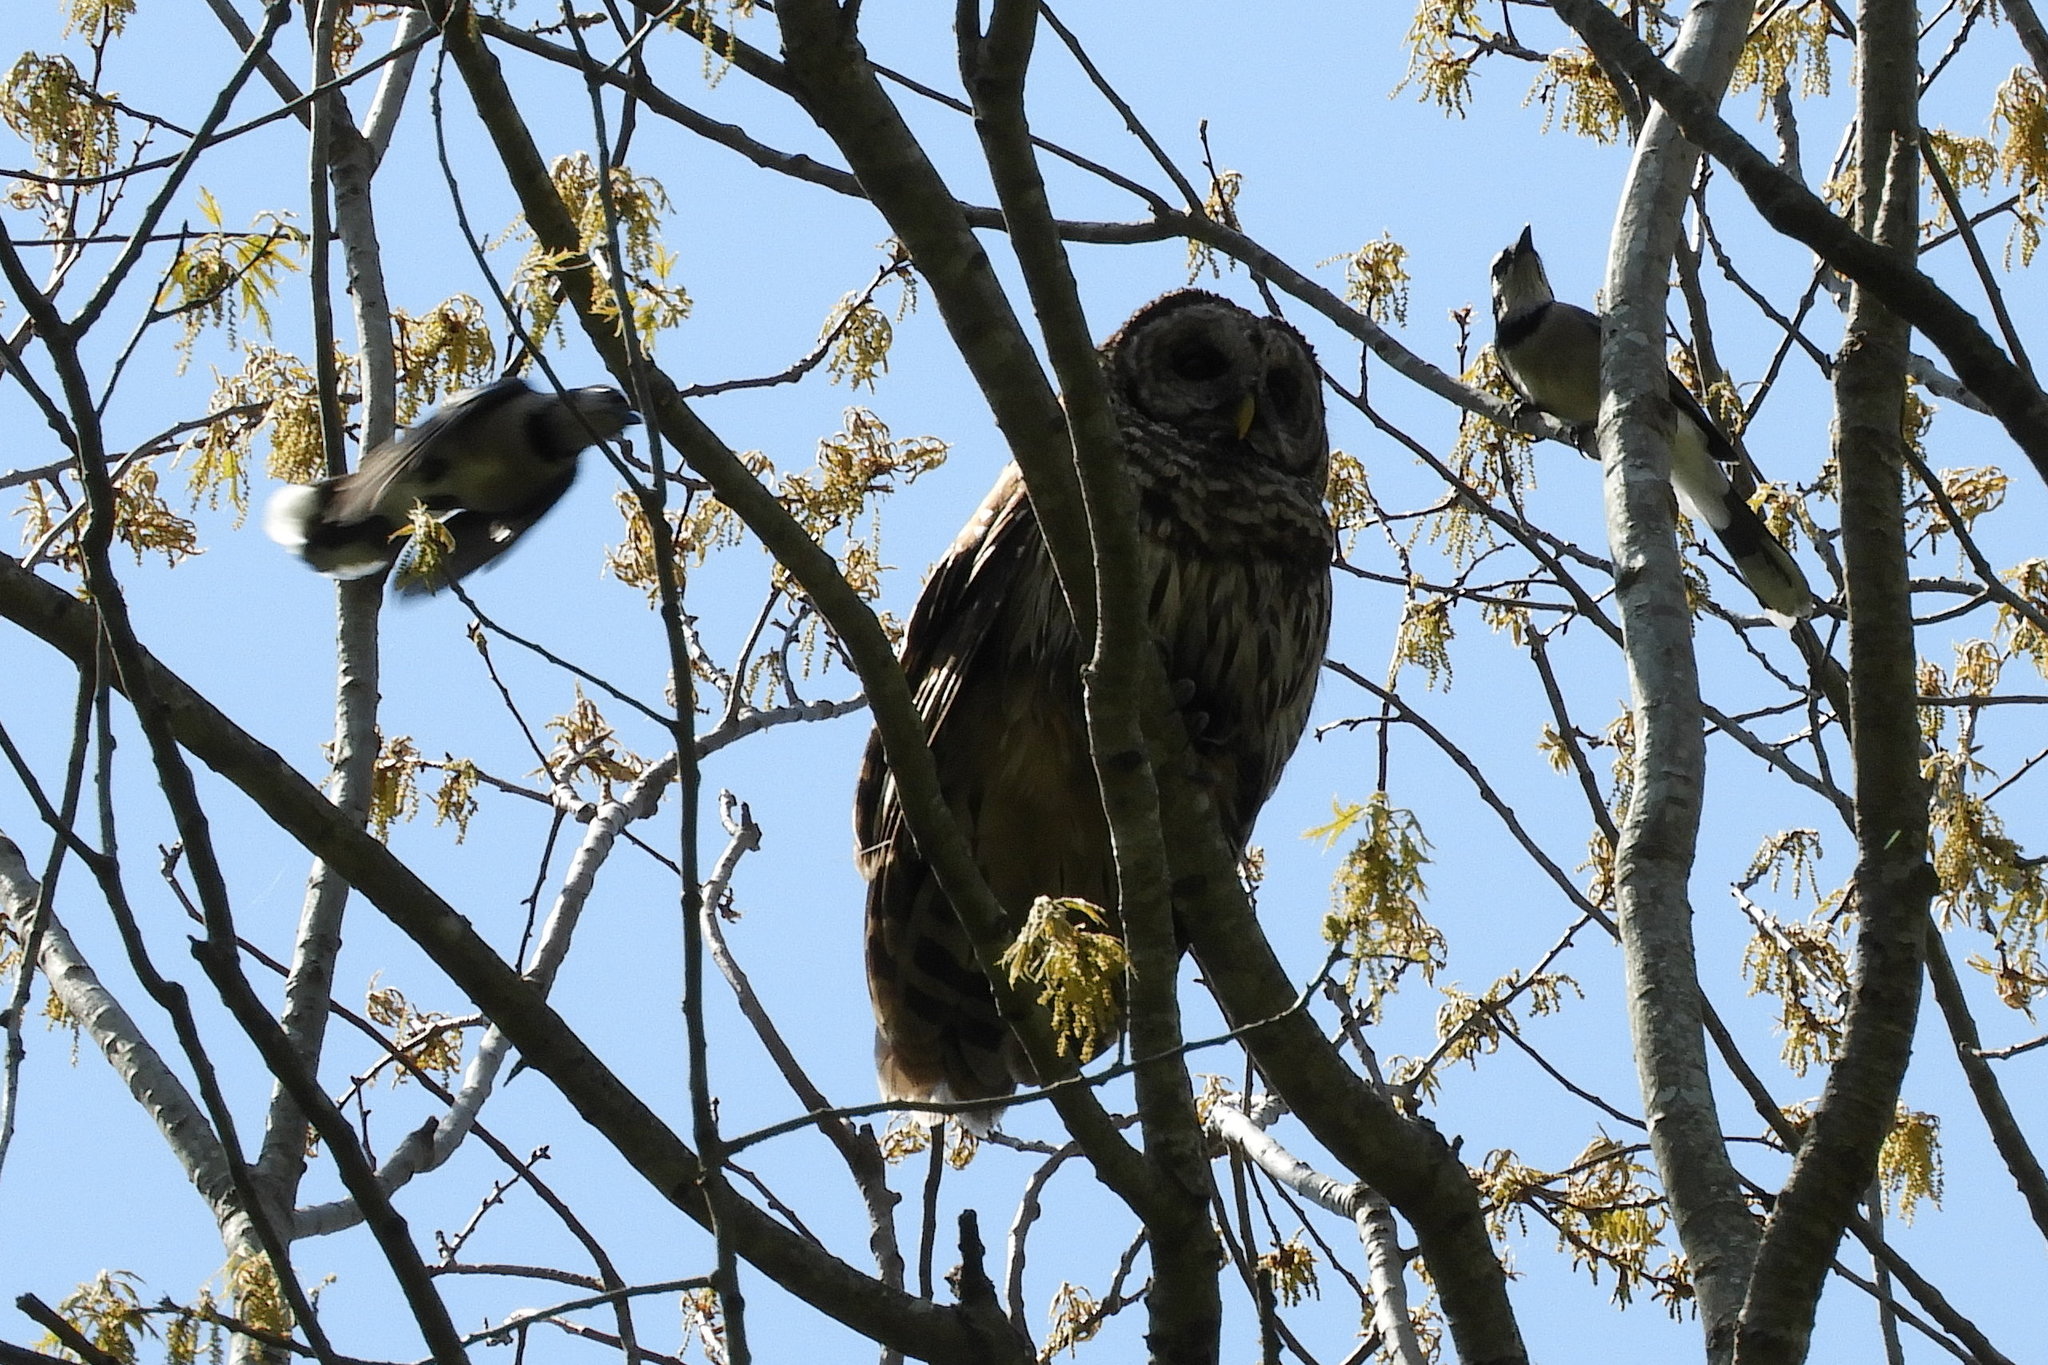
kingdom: Animalia
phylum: Chordata
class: Aves
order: Passeriformes
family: Corvidae
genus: Cyanocitta
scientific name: Cyanocitta cristata
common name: Blue jay
